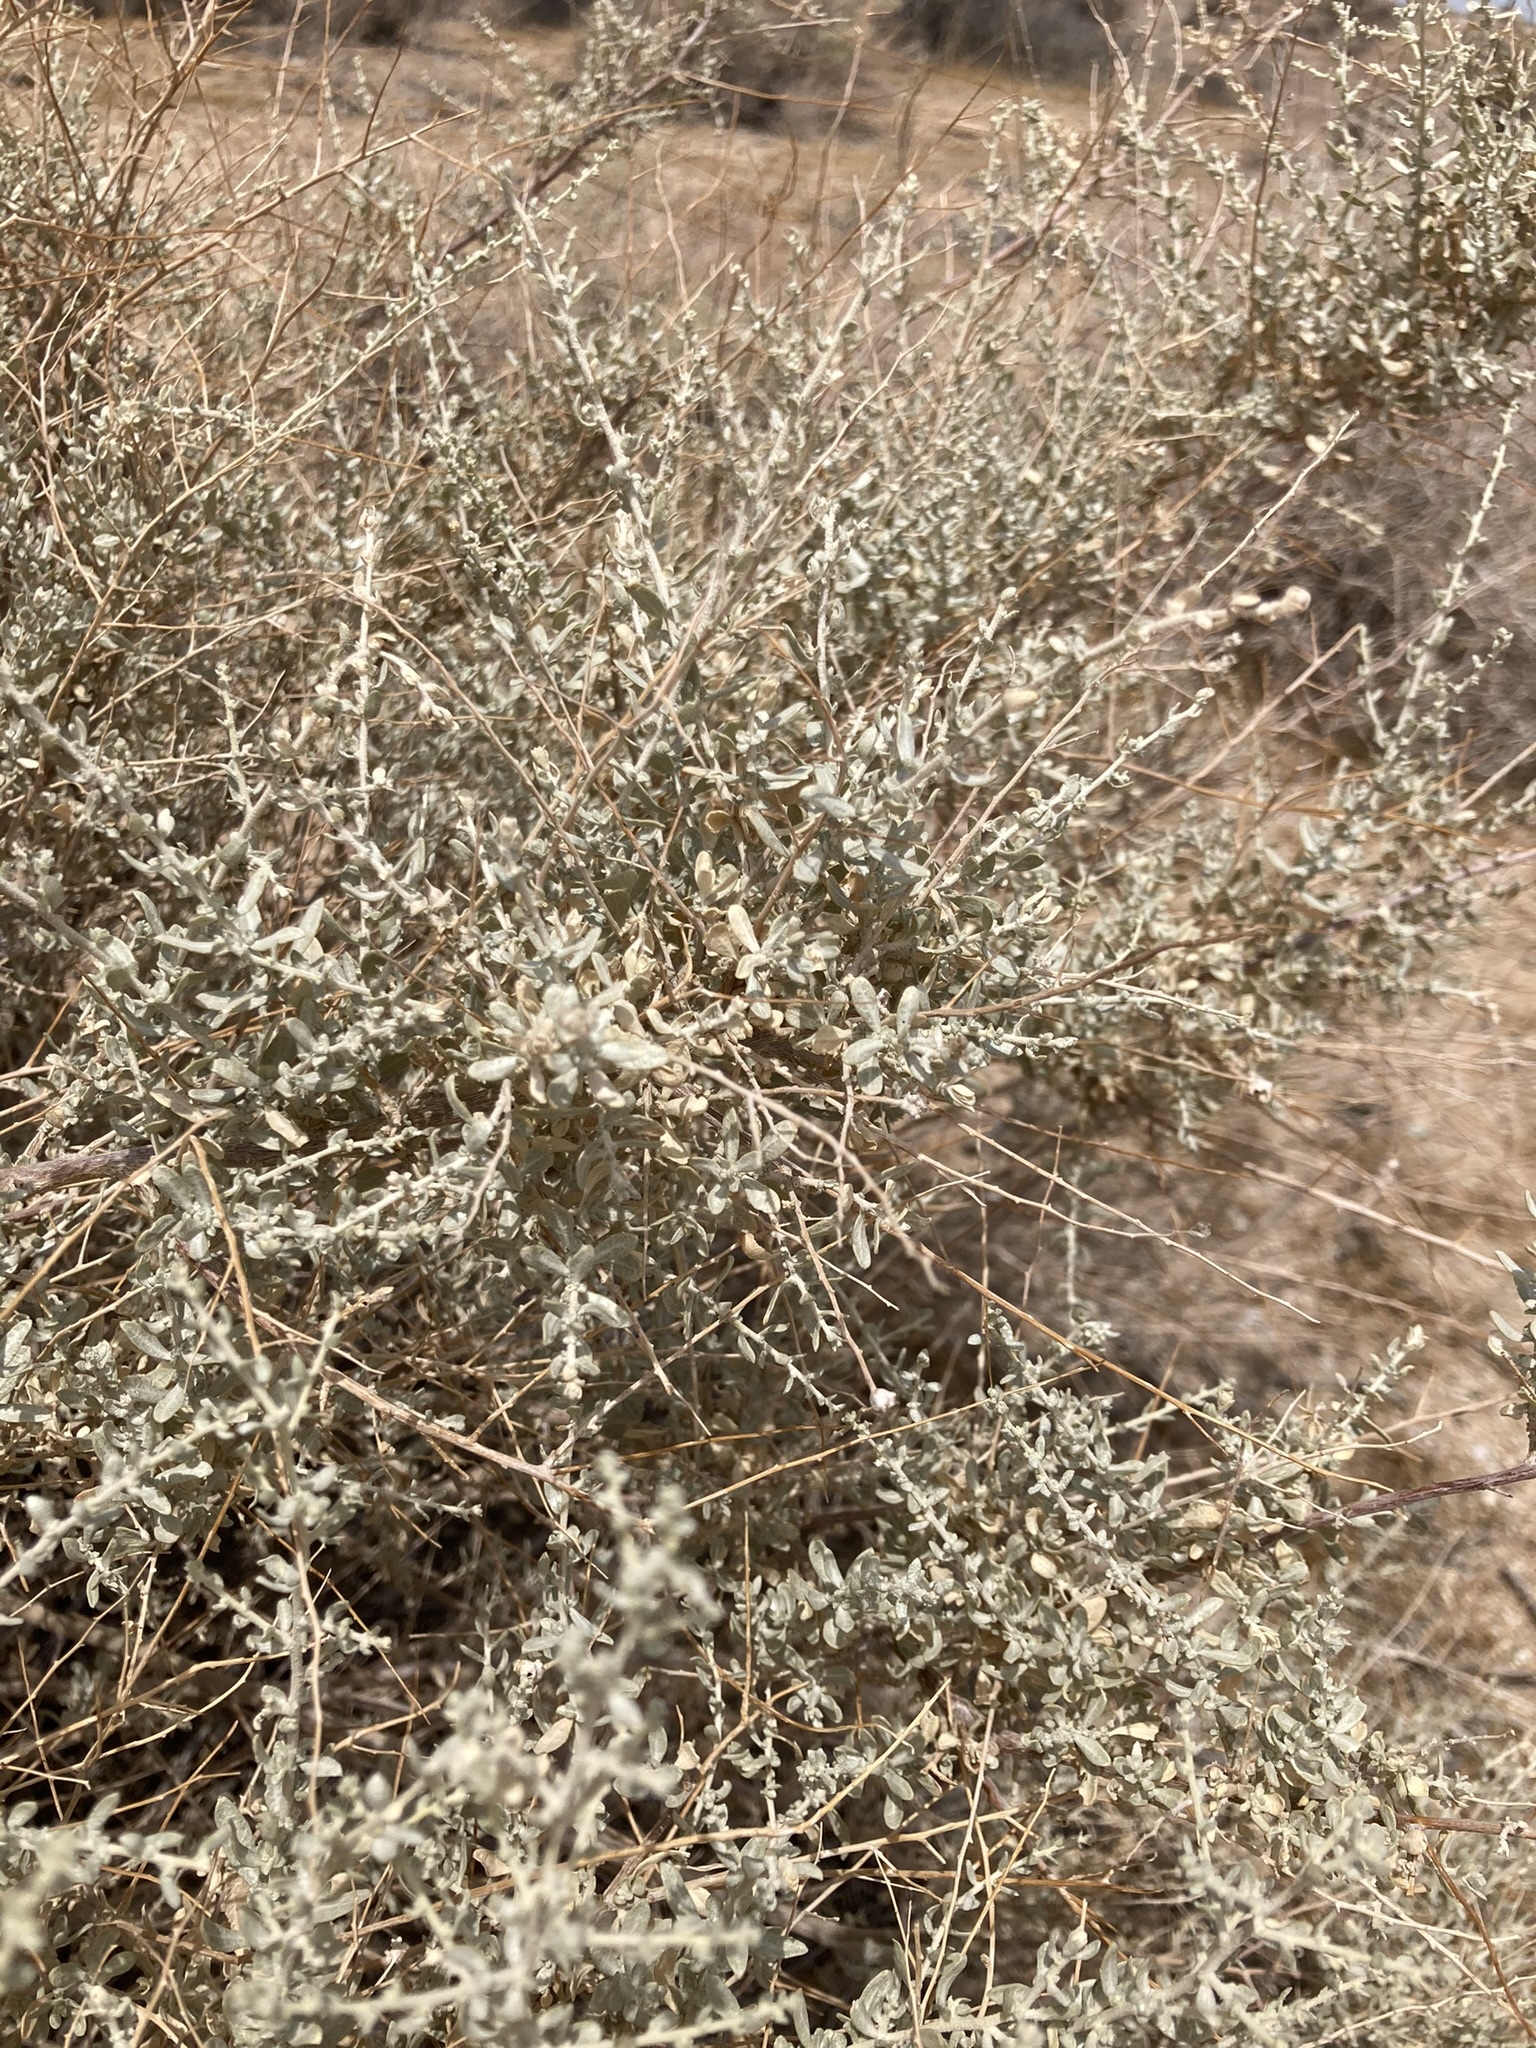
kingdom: Plantae
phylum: Tracheophyta
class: Magnoliopsida
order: Caryophyllales
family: Amaranthaceae
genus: Atriplex
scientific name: Atriplex polycarpa
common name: Desert saltbush
